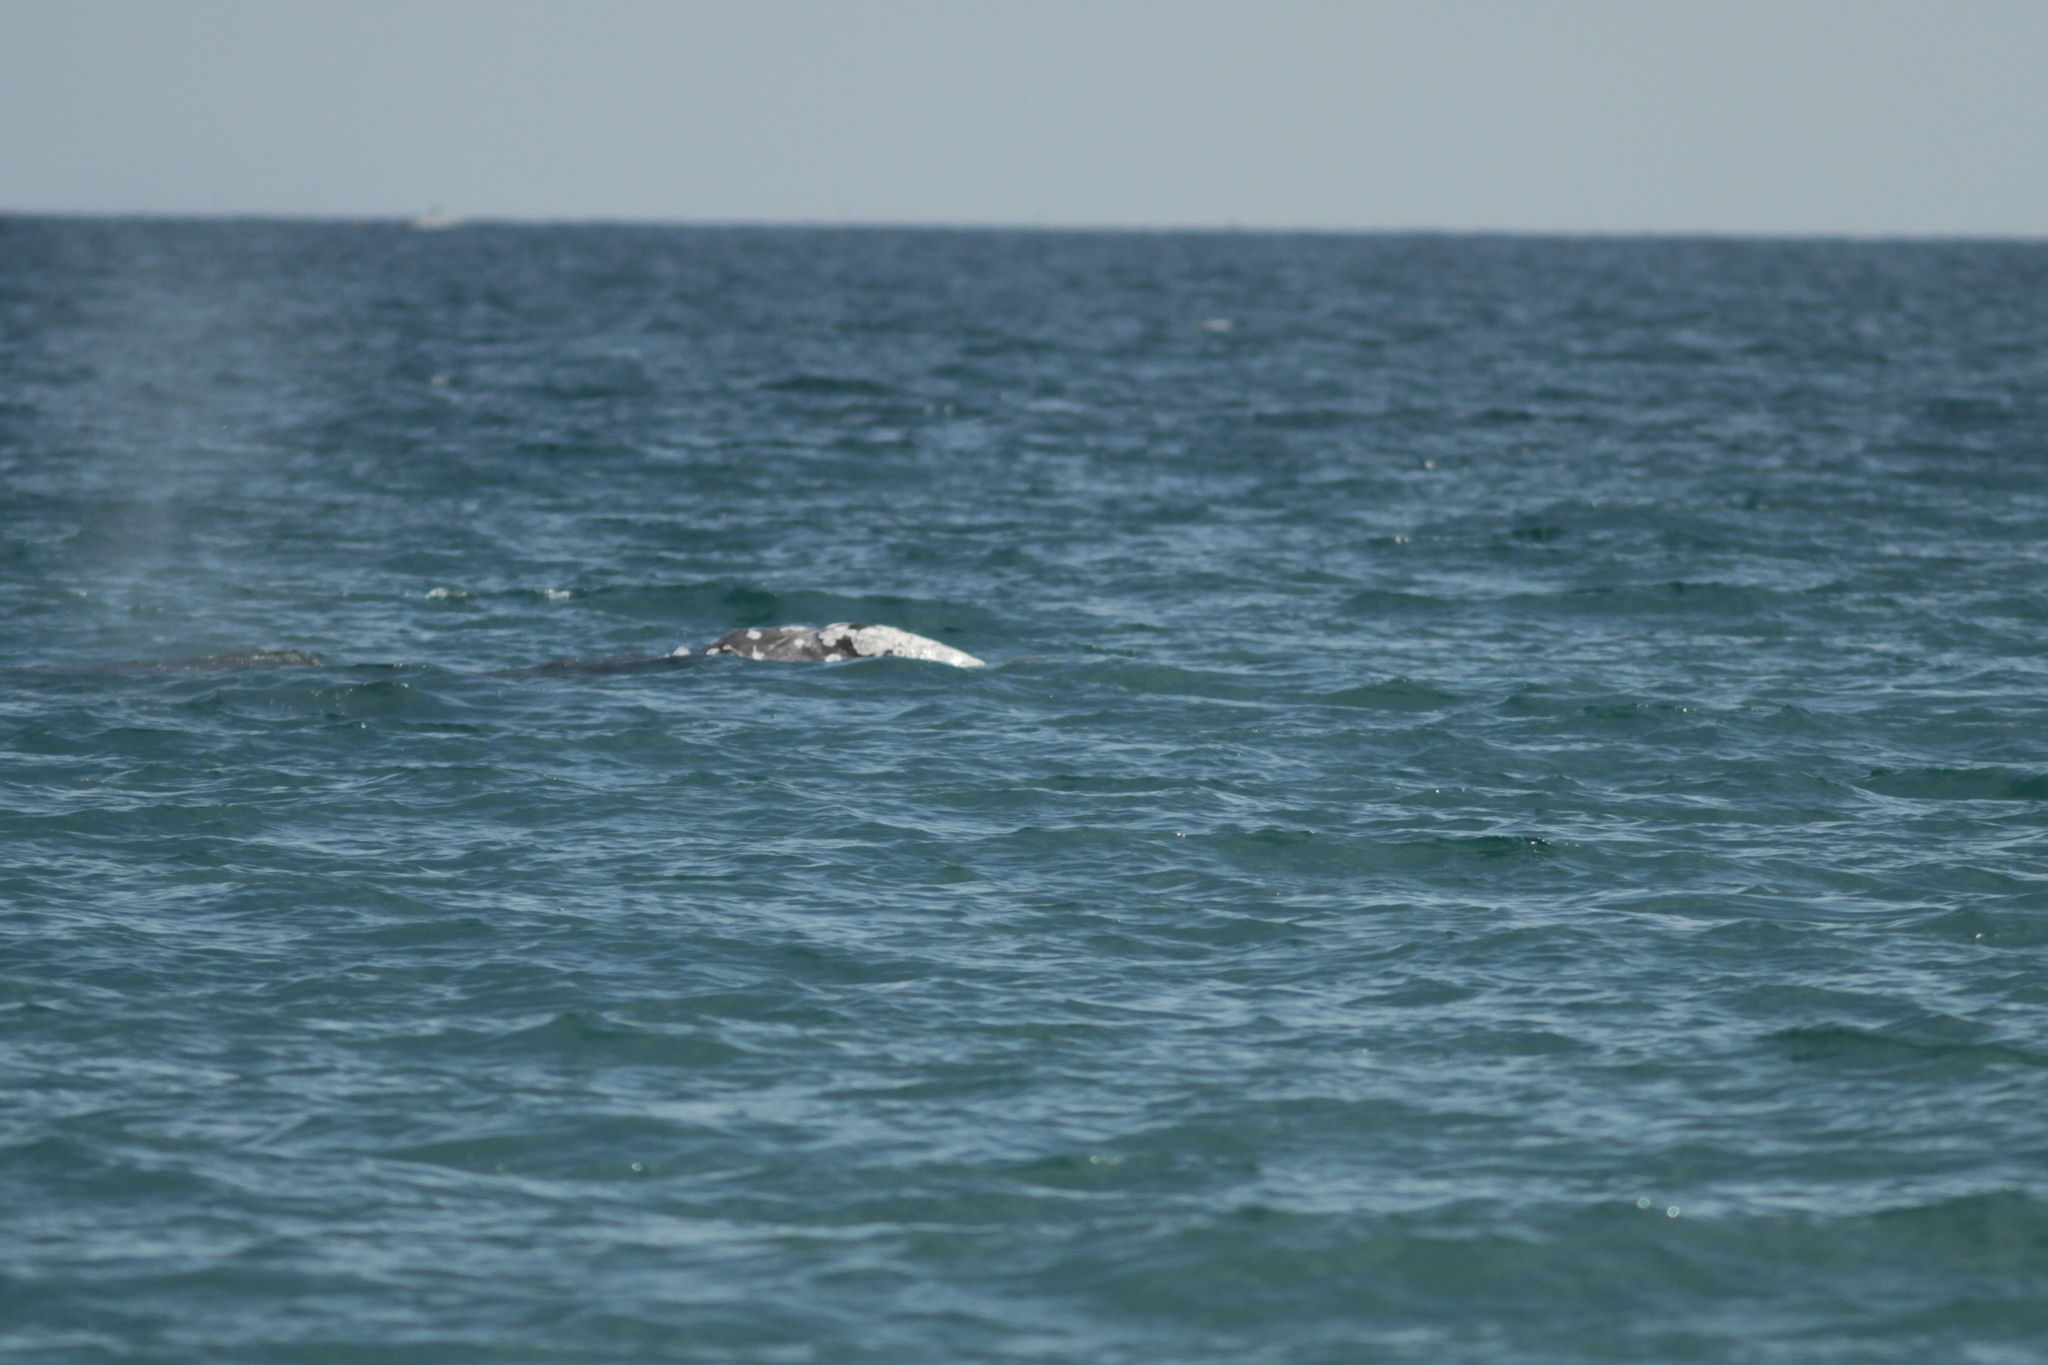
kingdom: Animalia
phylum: Chordata
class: Mammalia
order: Cetacea
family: Eschrichtiidae
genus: Eschrichtius
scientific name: Eschrichtius robustus
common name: Gray whale
